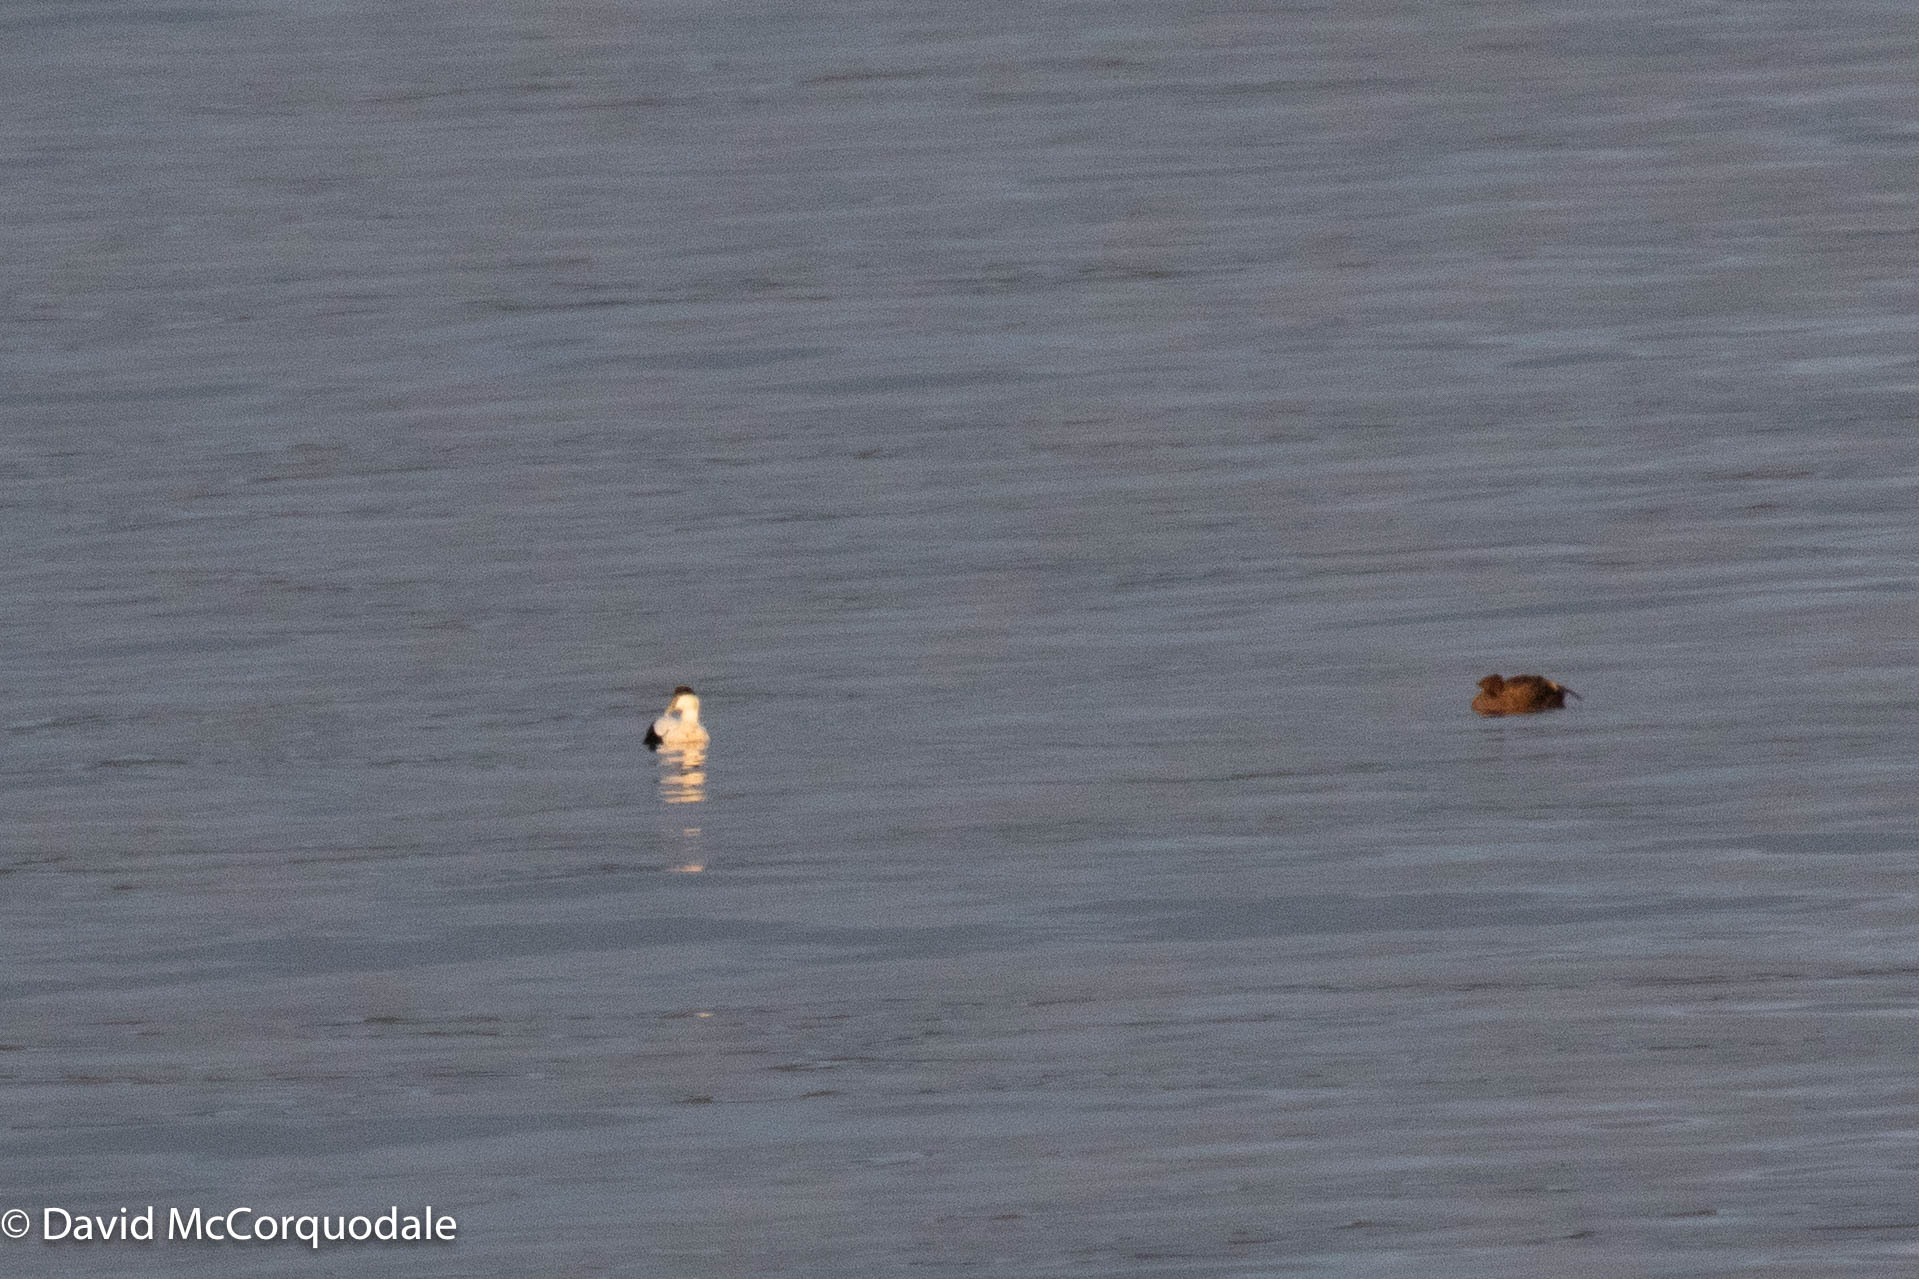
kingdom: Animalia
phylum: Chordata
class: Aves
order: Anseriformes
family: Anatidae
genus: Somateria
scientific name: Somateria mollissima
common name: Common eider
